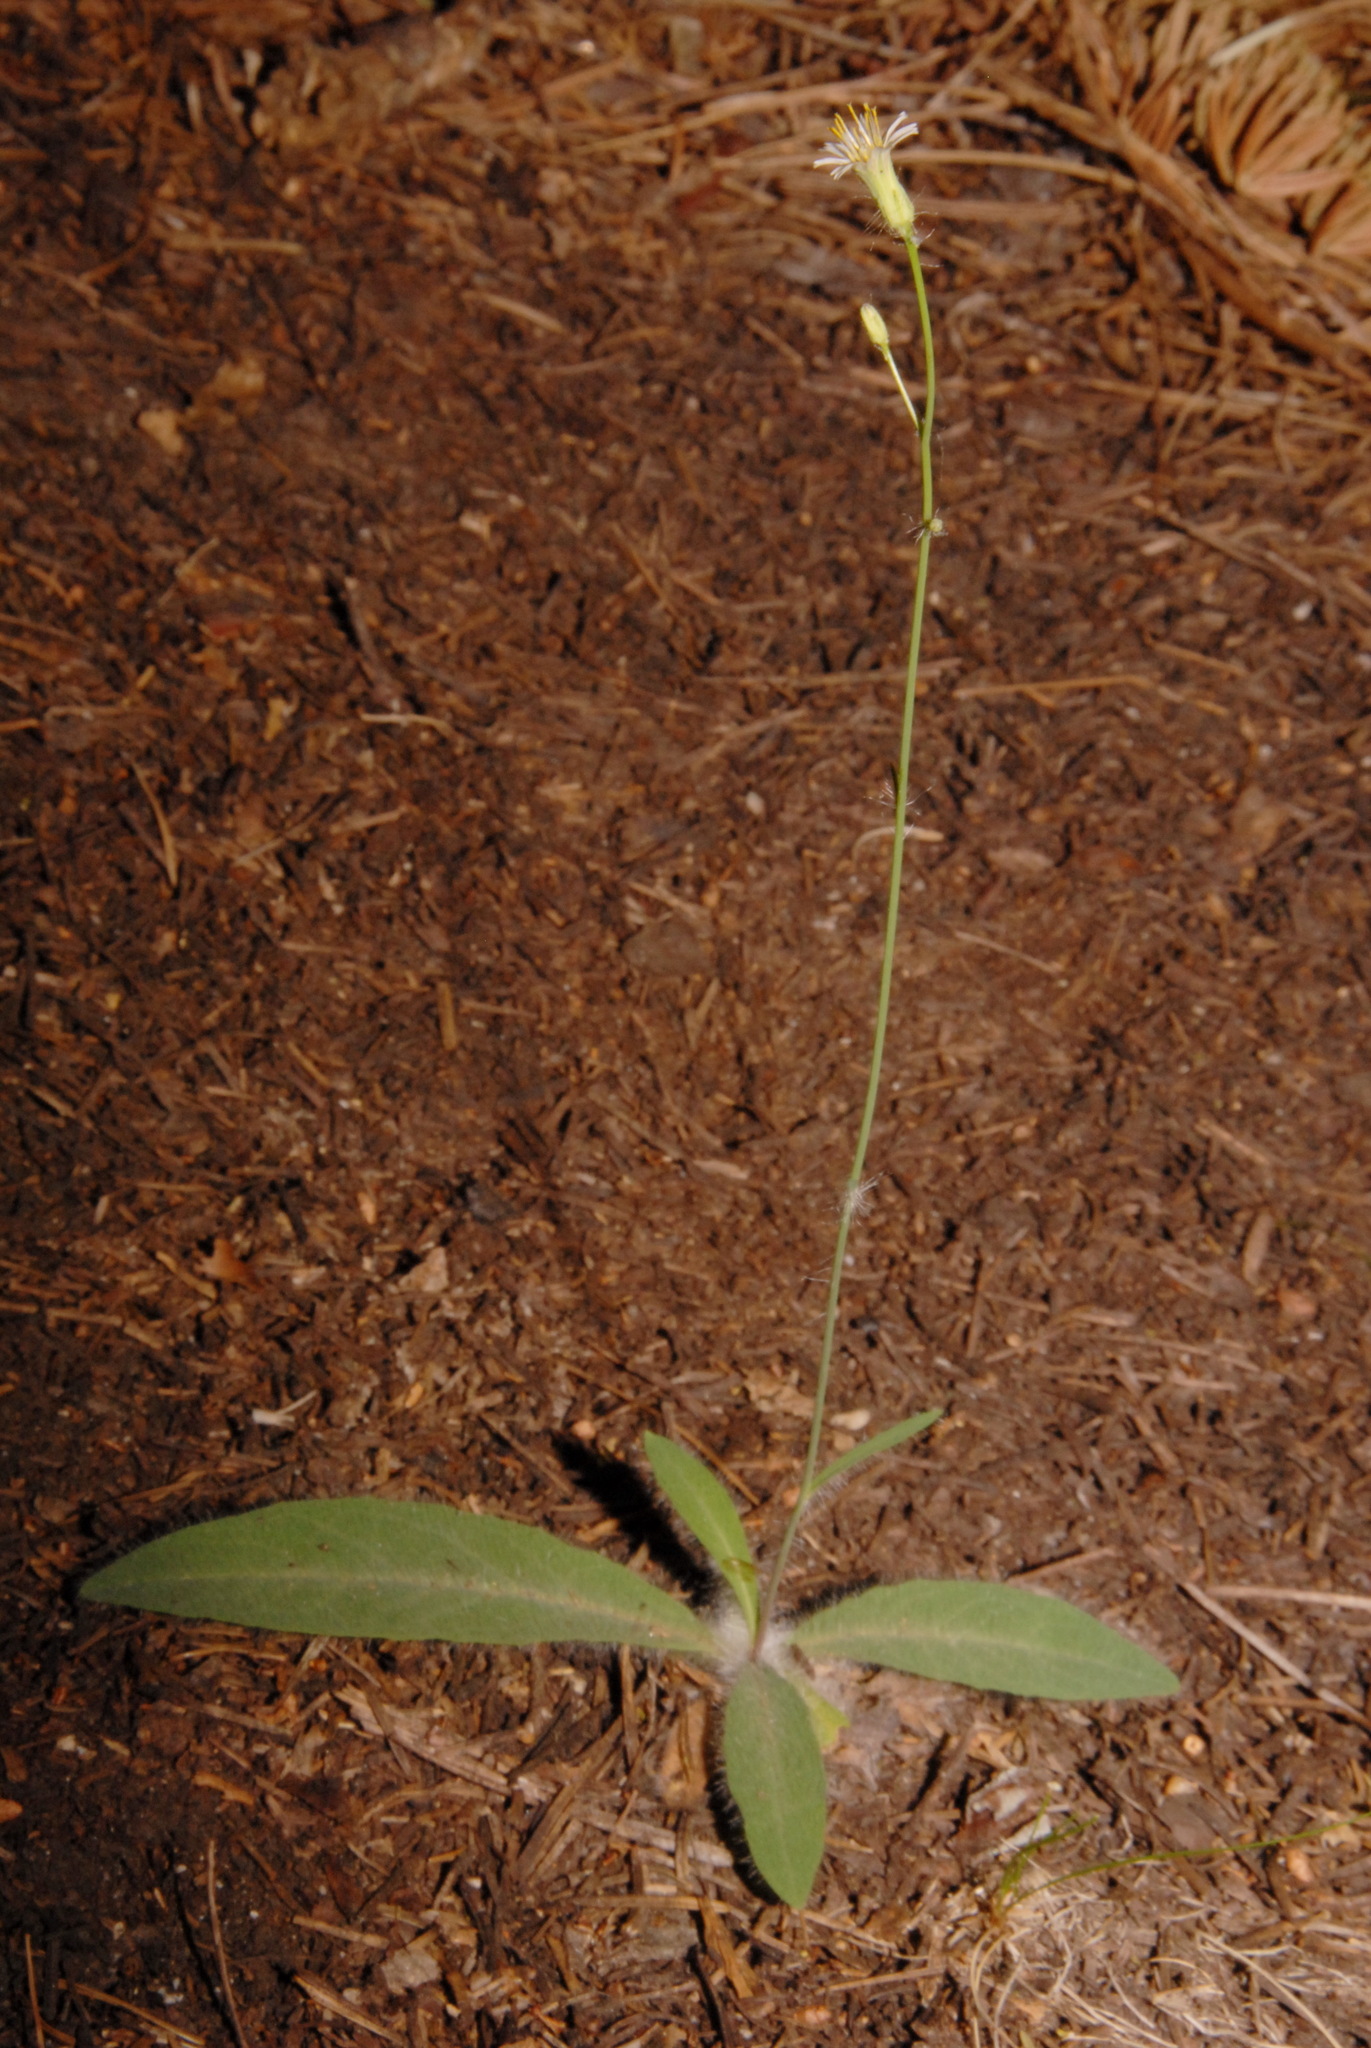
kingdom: Plantae
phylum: Tracheophyta
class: Magnoliopsida
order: Asterales
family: Asteraceae
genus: Hieracium
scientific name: Hieracium albiflorum
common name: White hawkweed
